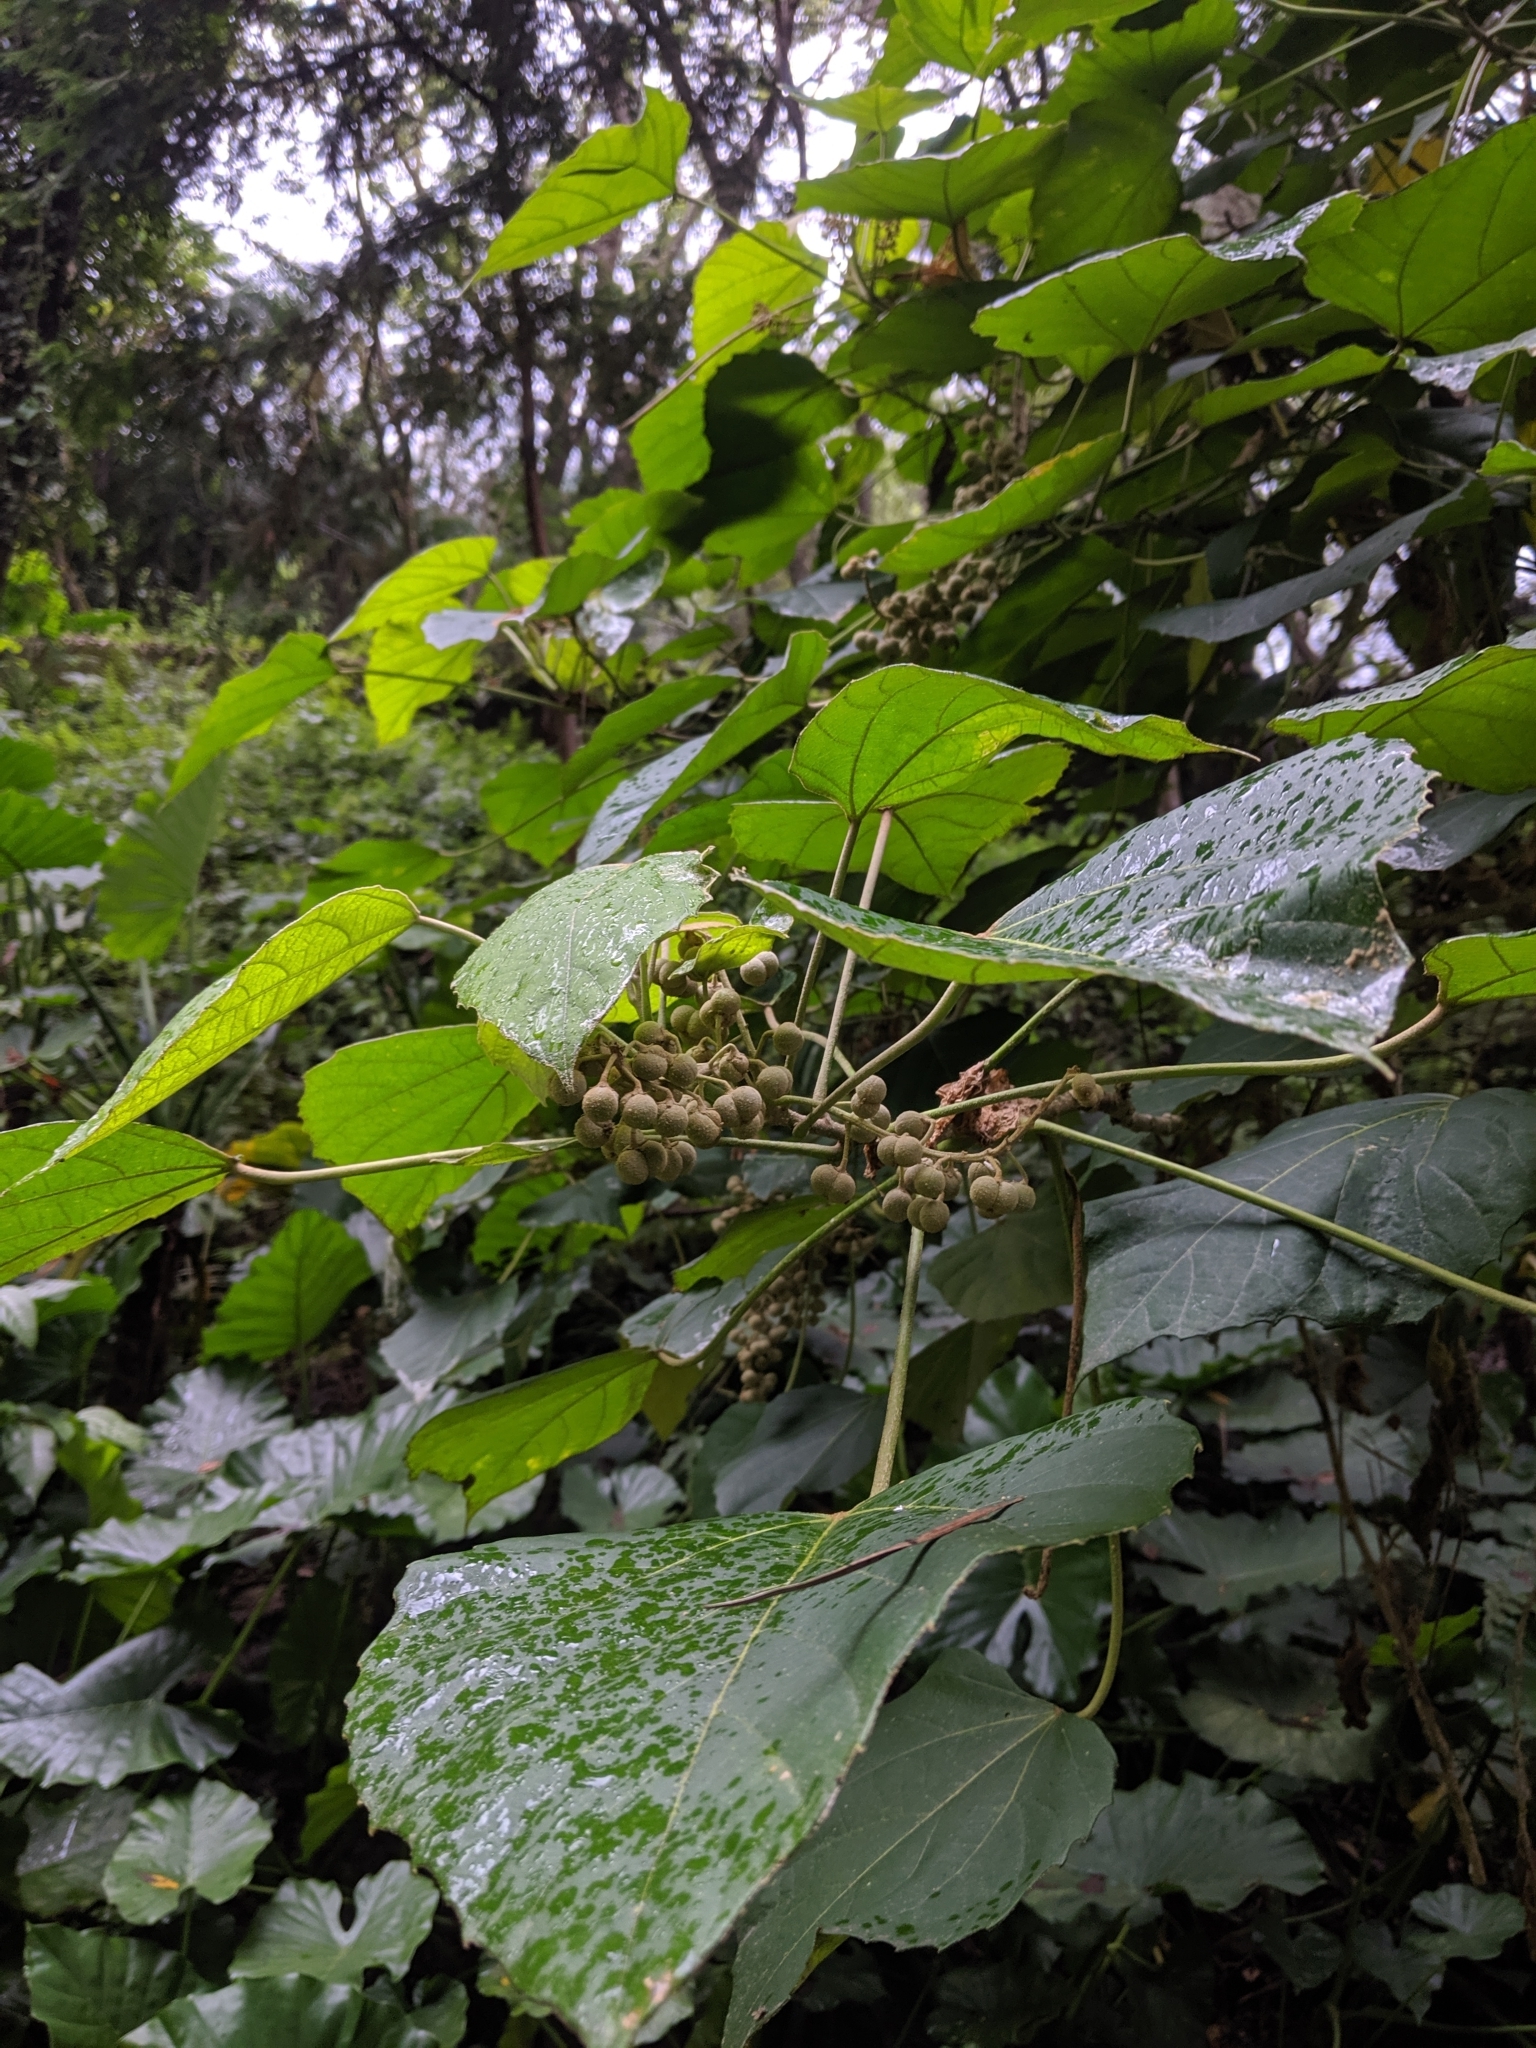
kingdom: Plantae
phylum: Tracheophyta
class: Magnoliopsida
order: Malpighiales
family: Euphorbiaceae
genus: Melanolepis
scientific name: Melanolepis multiglandulosa
